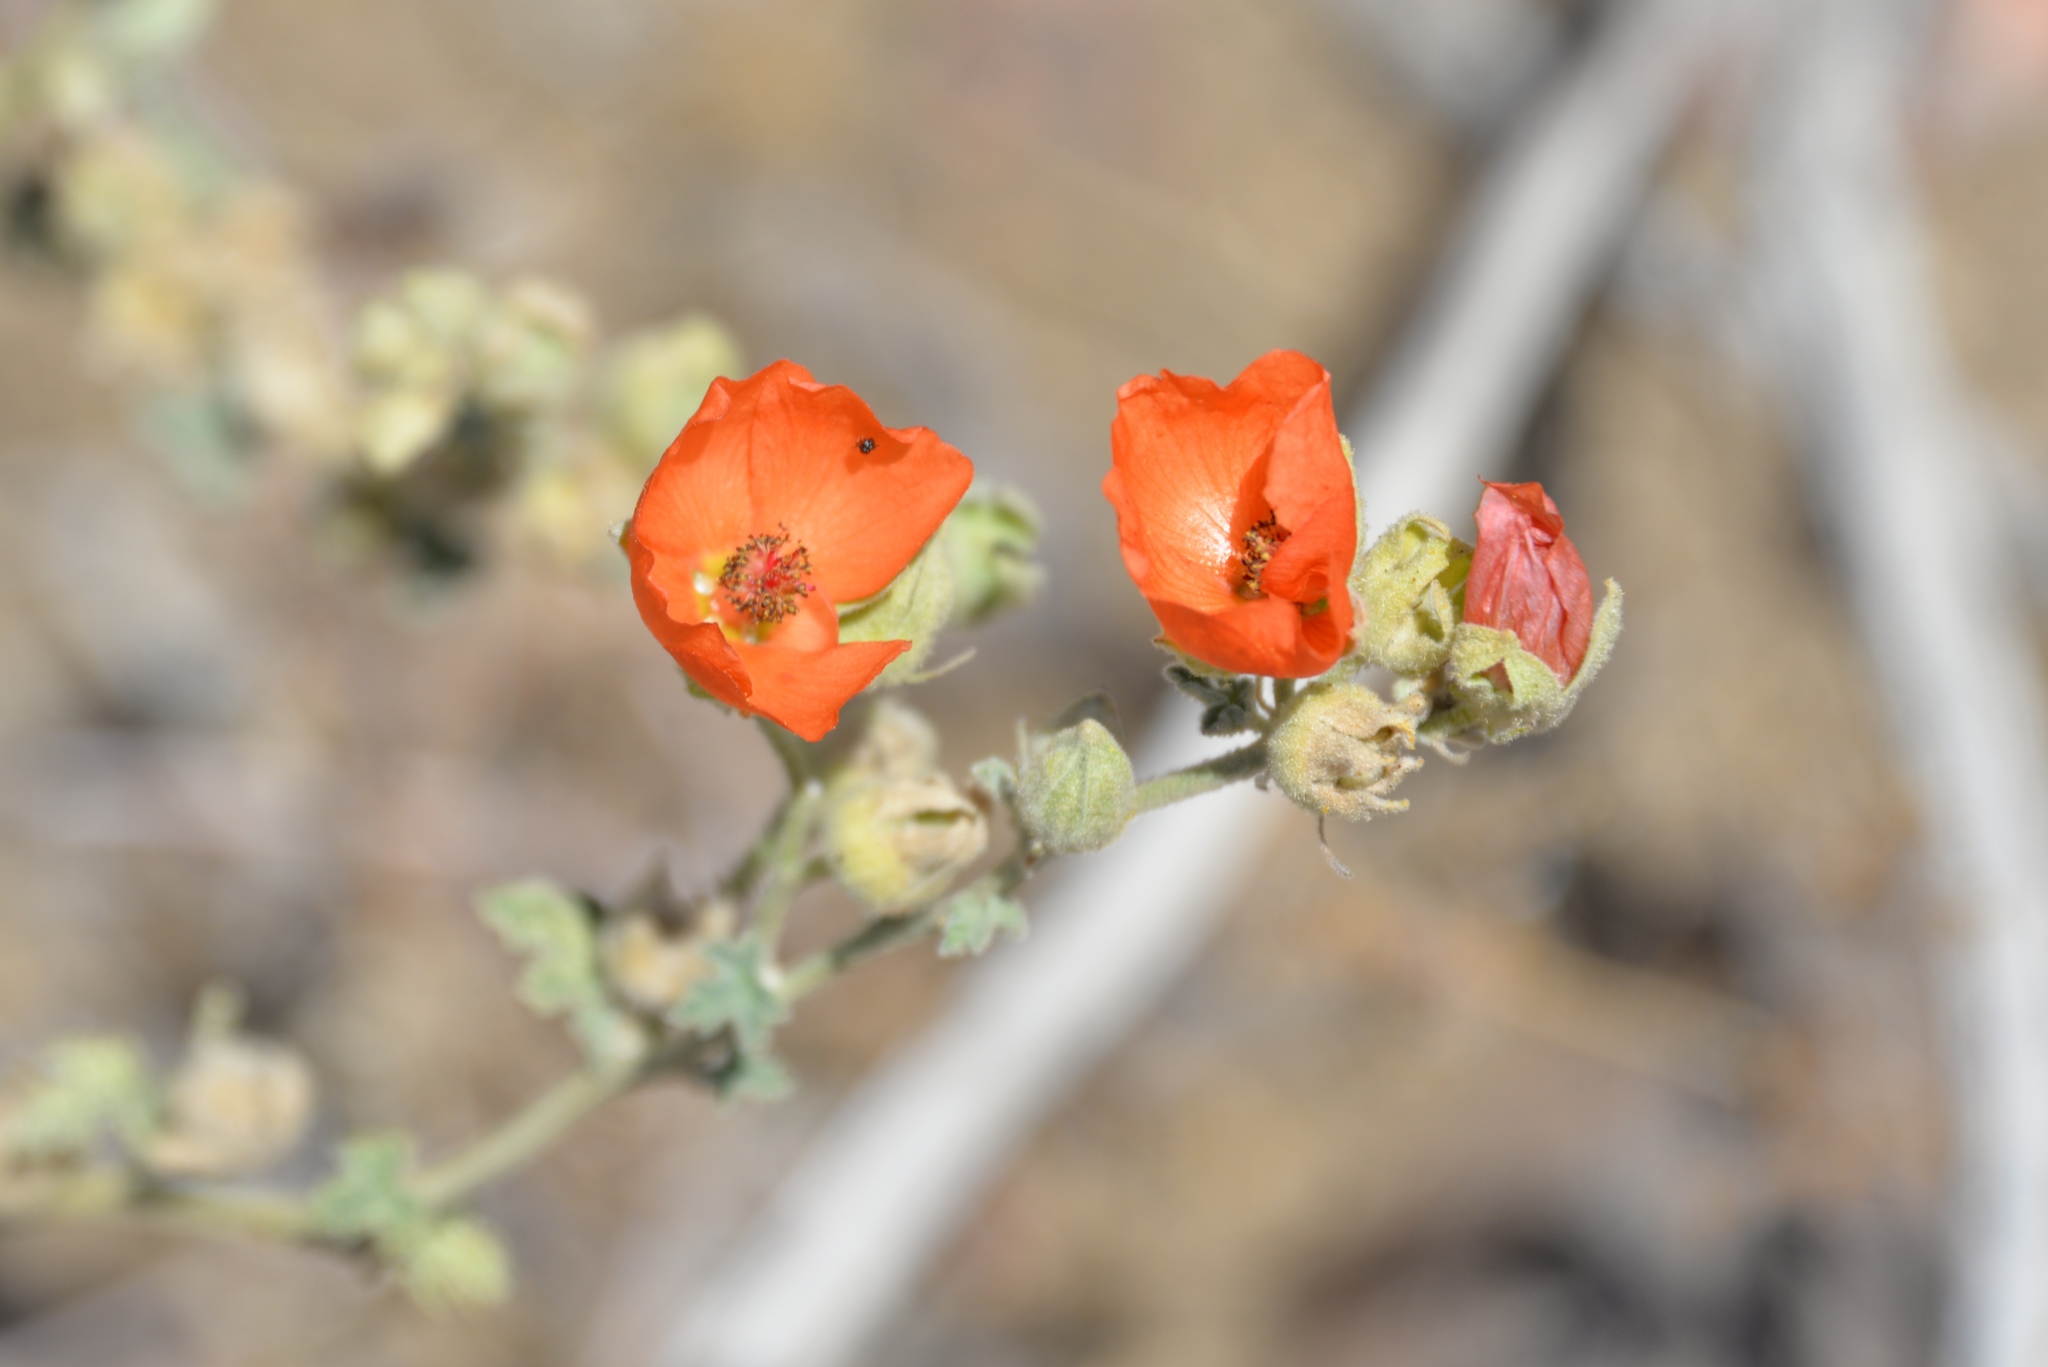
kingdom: Plantae
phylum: Tracheophyta
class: Magnoliopsida
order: Malvales
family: Malvaceae
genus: Sphaeralcea
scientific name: Sphaeralcea ambigua
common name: Apricot globe-mallow
